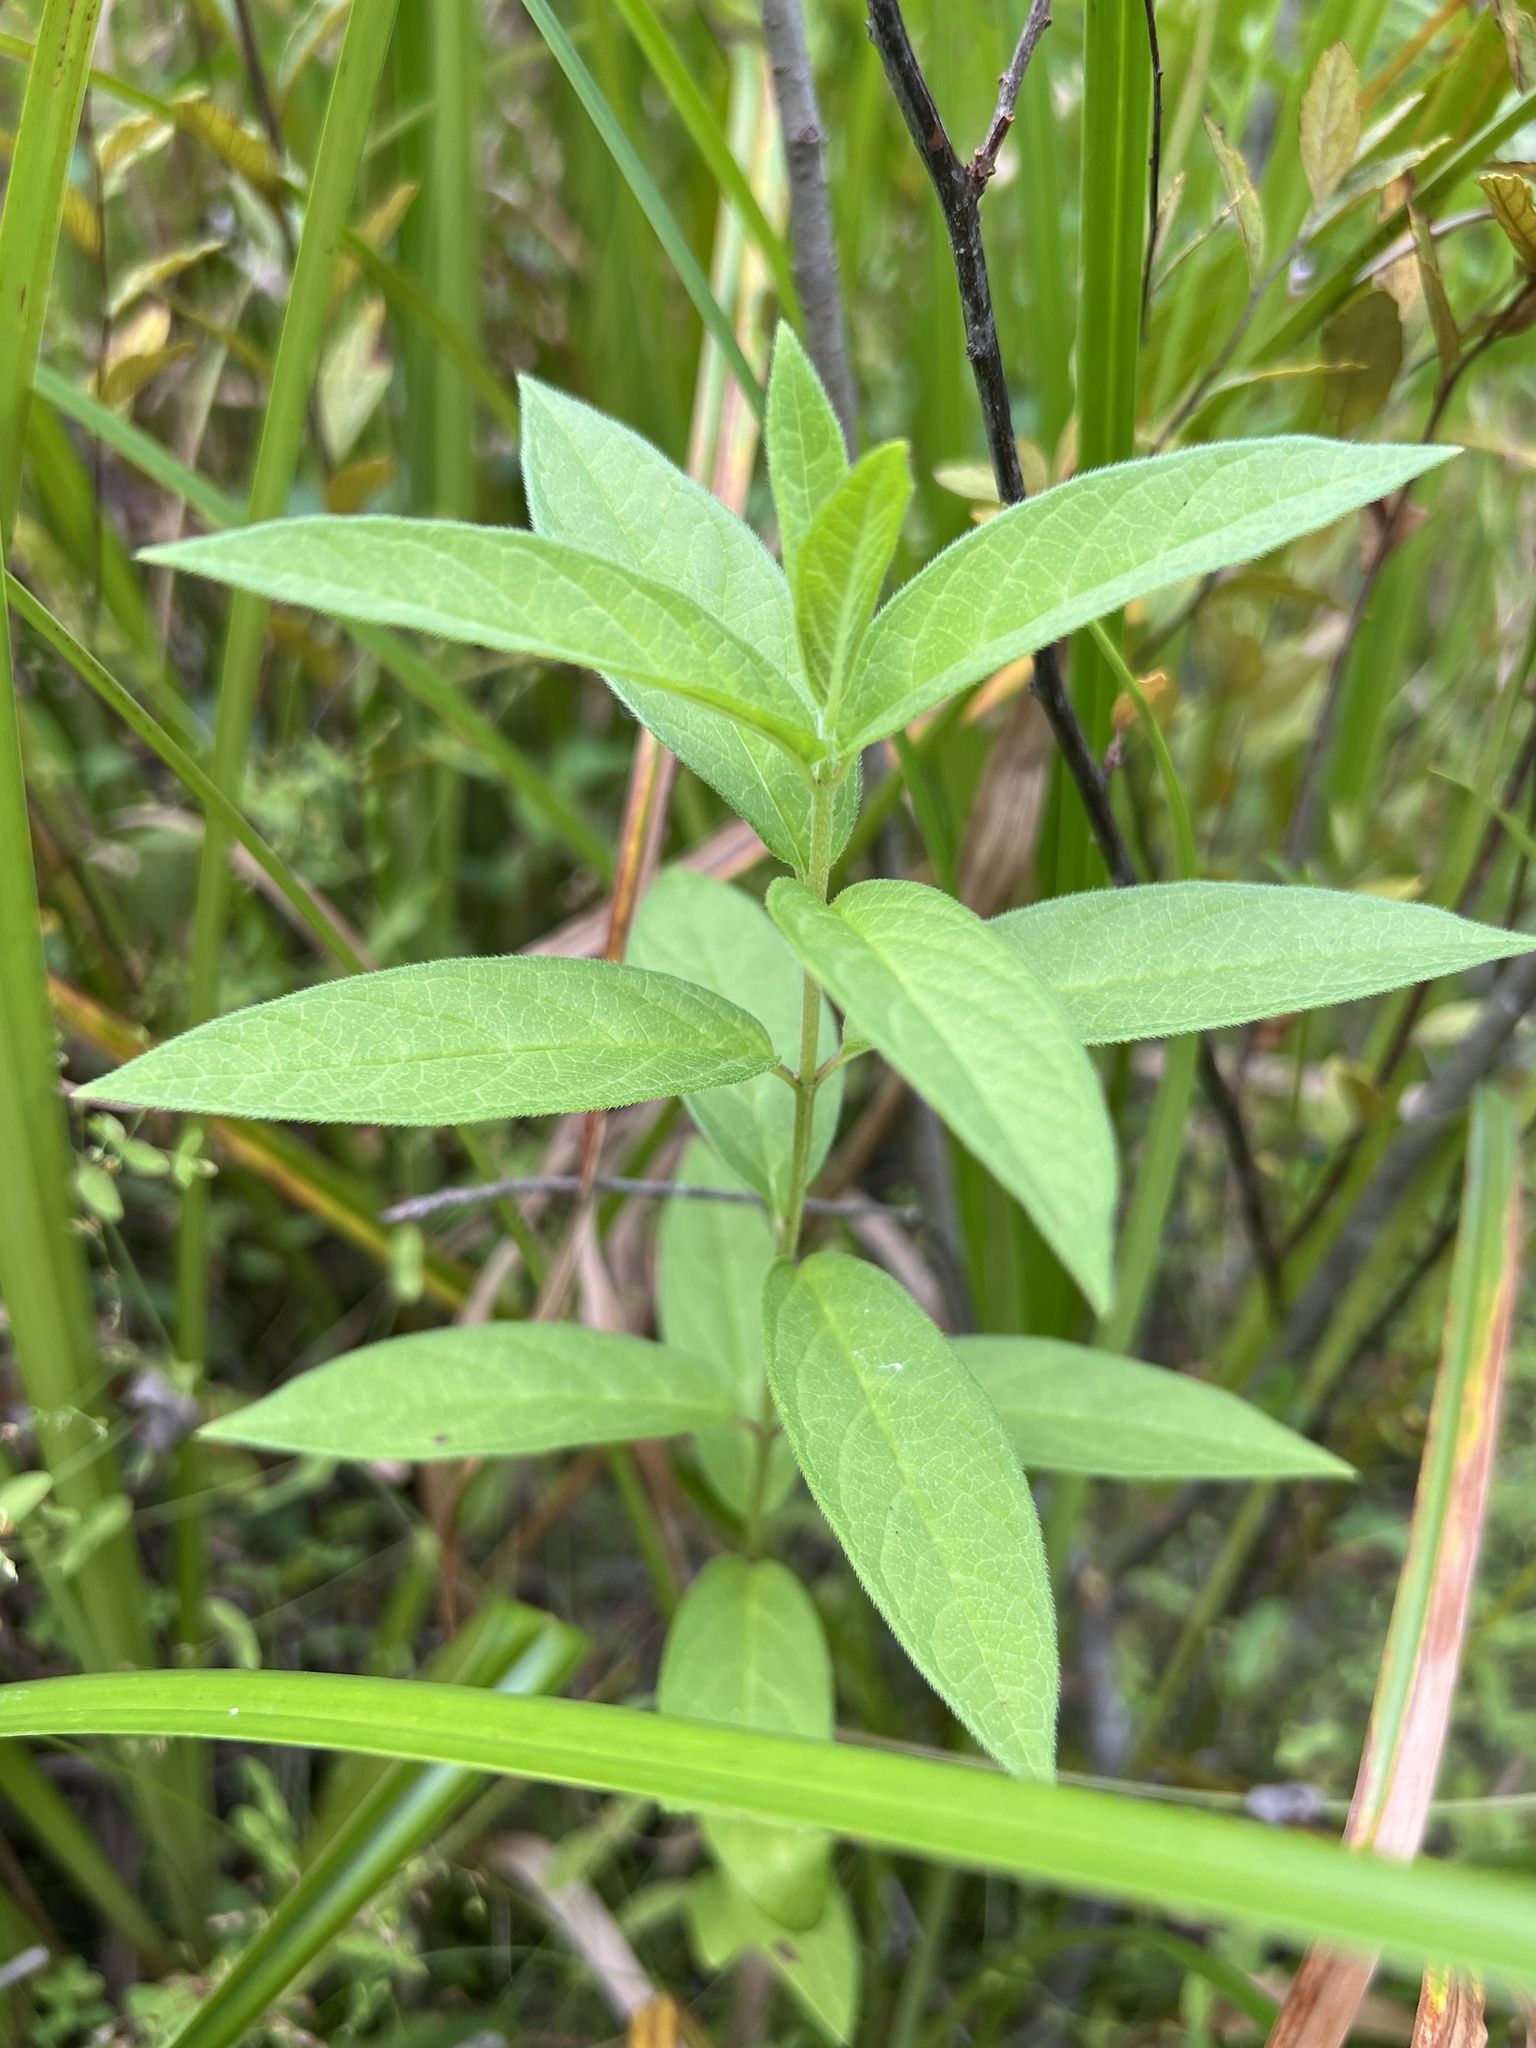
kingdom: Plantae
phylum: Tracheophyta
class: Magnoliopsida
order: Gentianales
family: Apocynaceae
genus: Asclepias
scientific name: Asclepias incarnata
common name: Swamp milkweed
